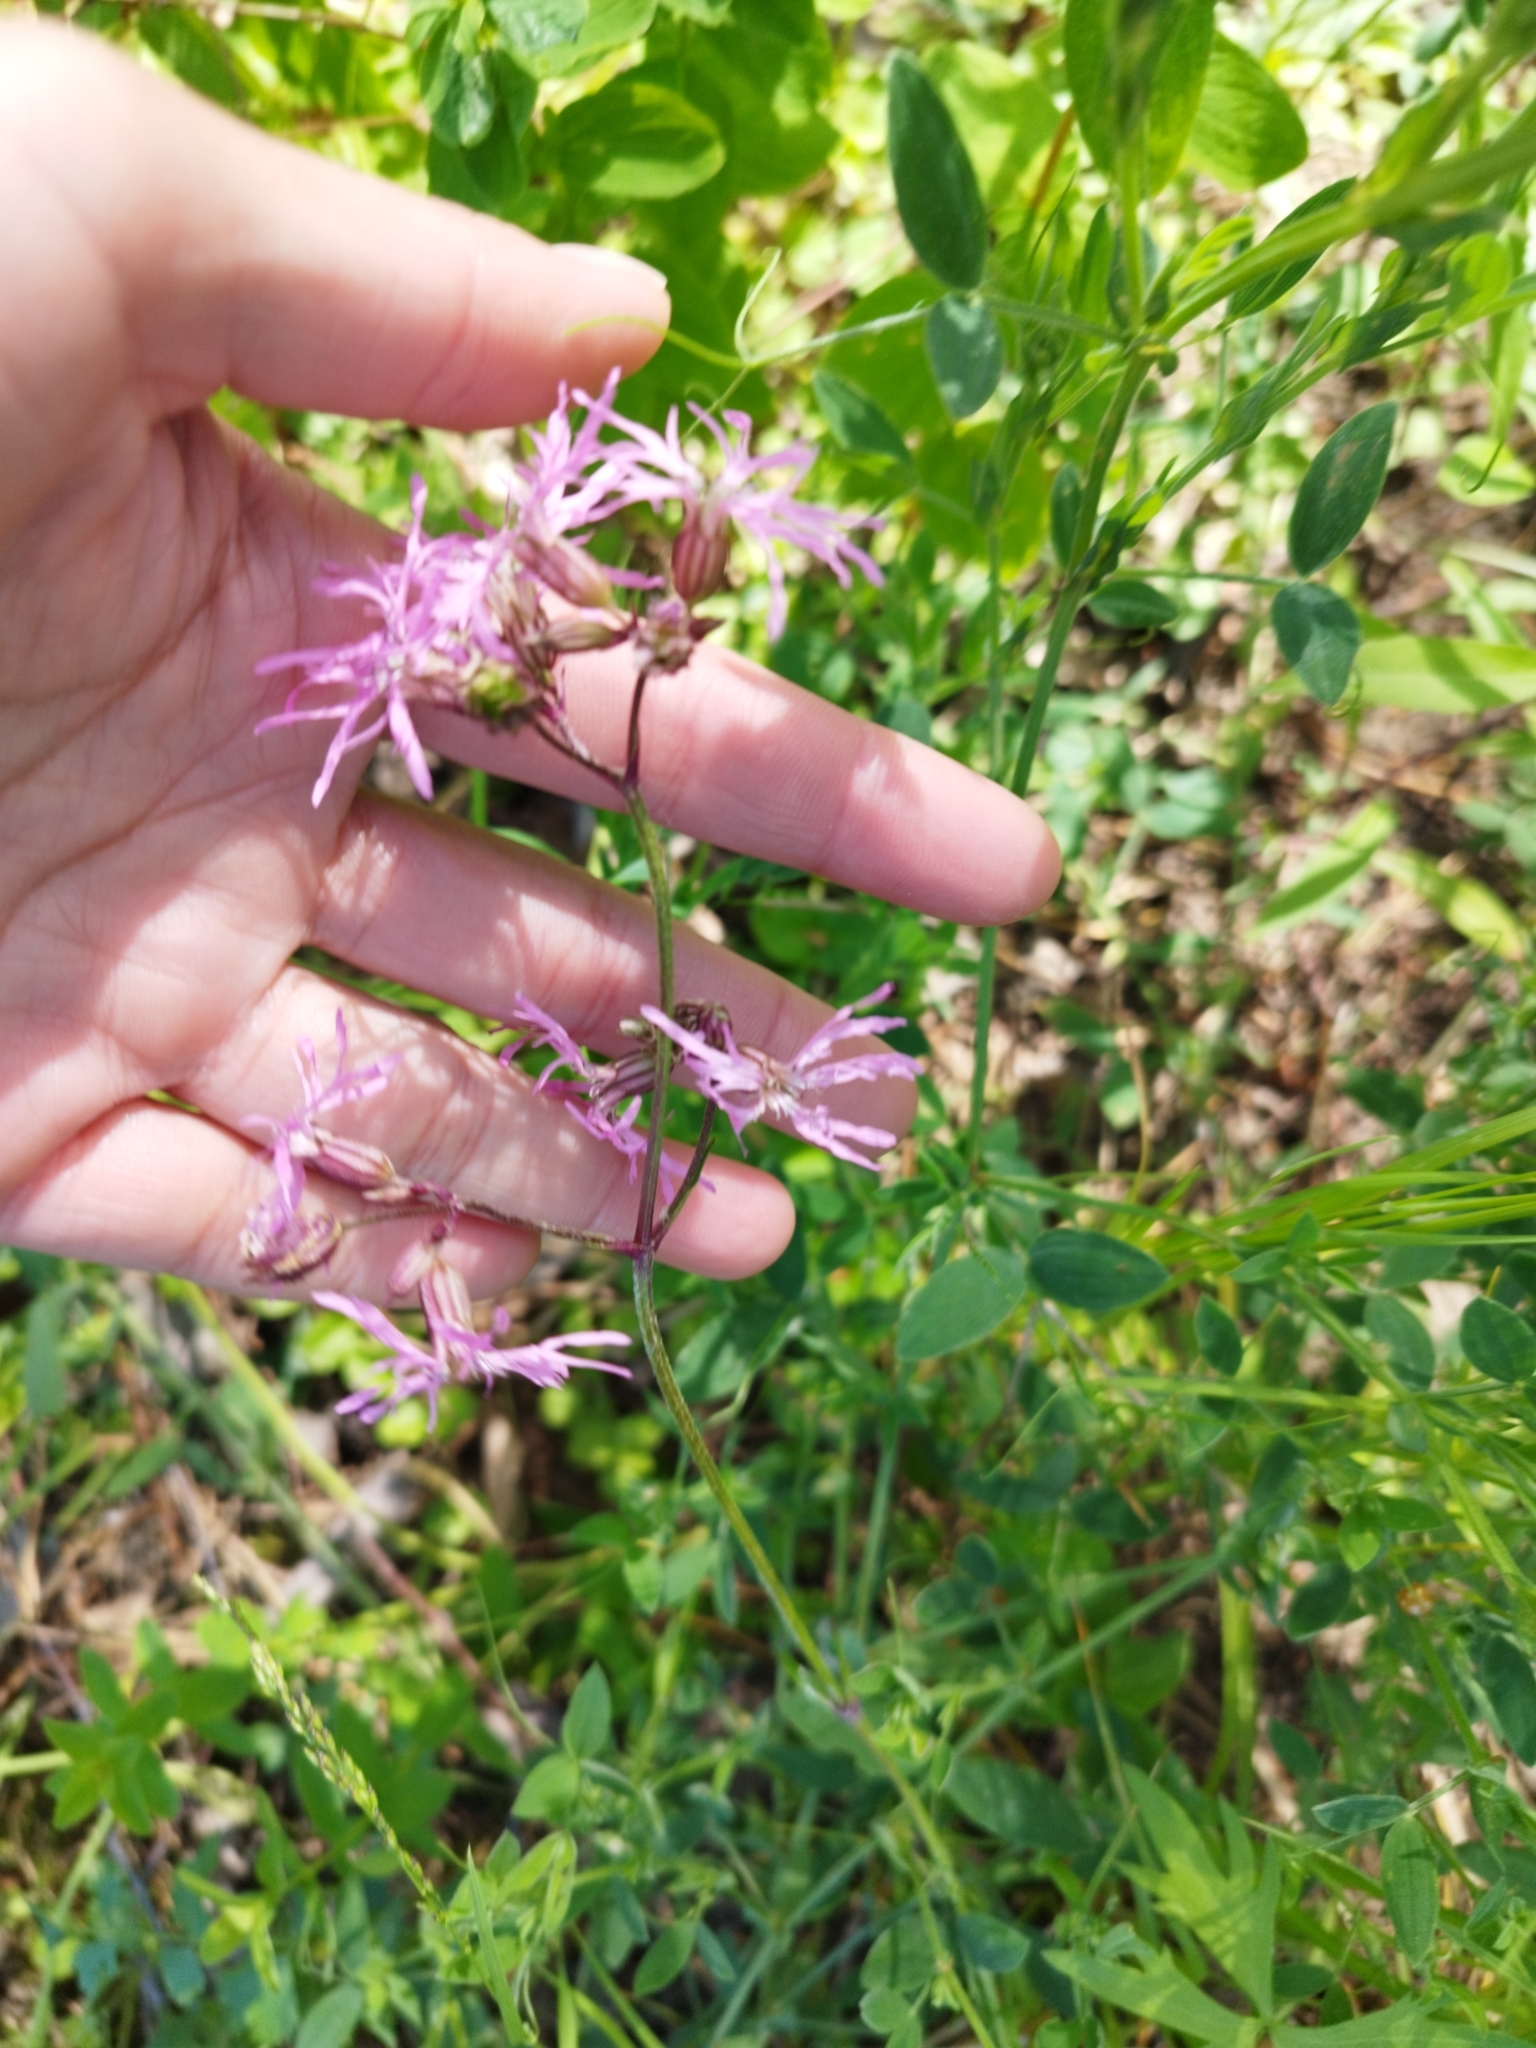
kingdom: Plantae
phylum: Tracheophyta
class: Magnoliopsida
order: Caryophyllales
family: Caryophyllaceae
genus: Silene
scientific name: Silene flos-cuculi
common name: Ragged-robin
